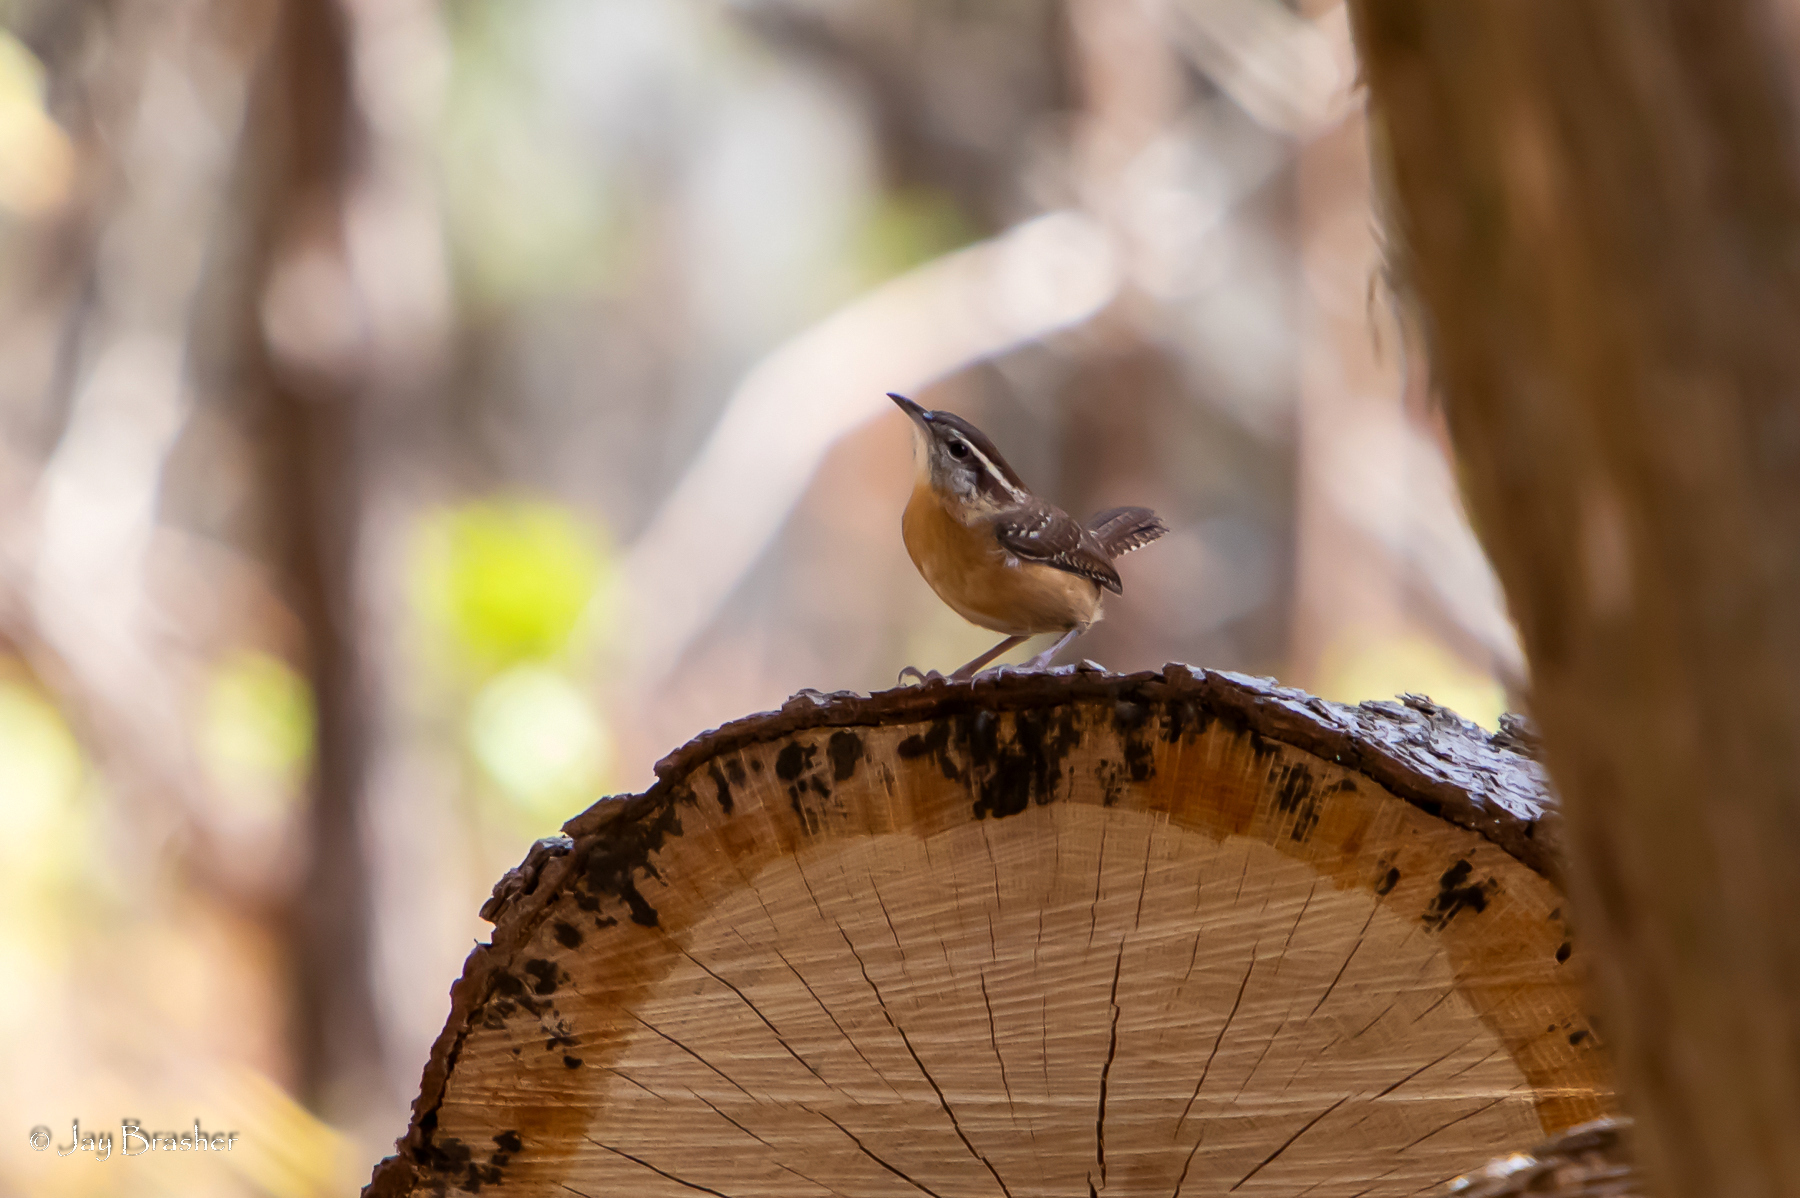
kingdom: Animalia
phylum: Chordata
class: Aves
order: Passeriformes
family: Troglodytidae
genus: Thryothorus
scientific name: Thryothorus ludovicianus
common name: Carolina wren
